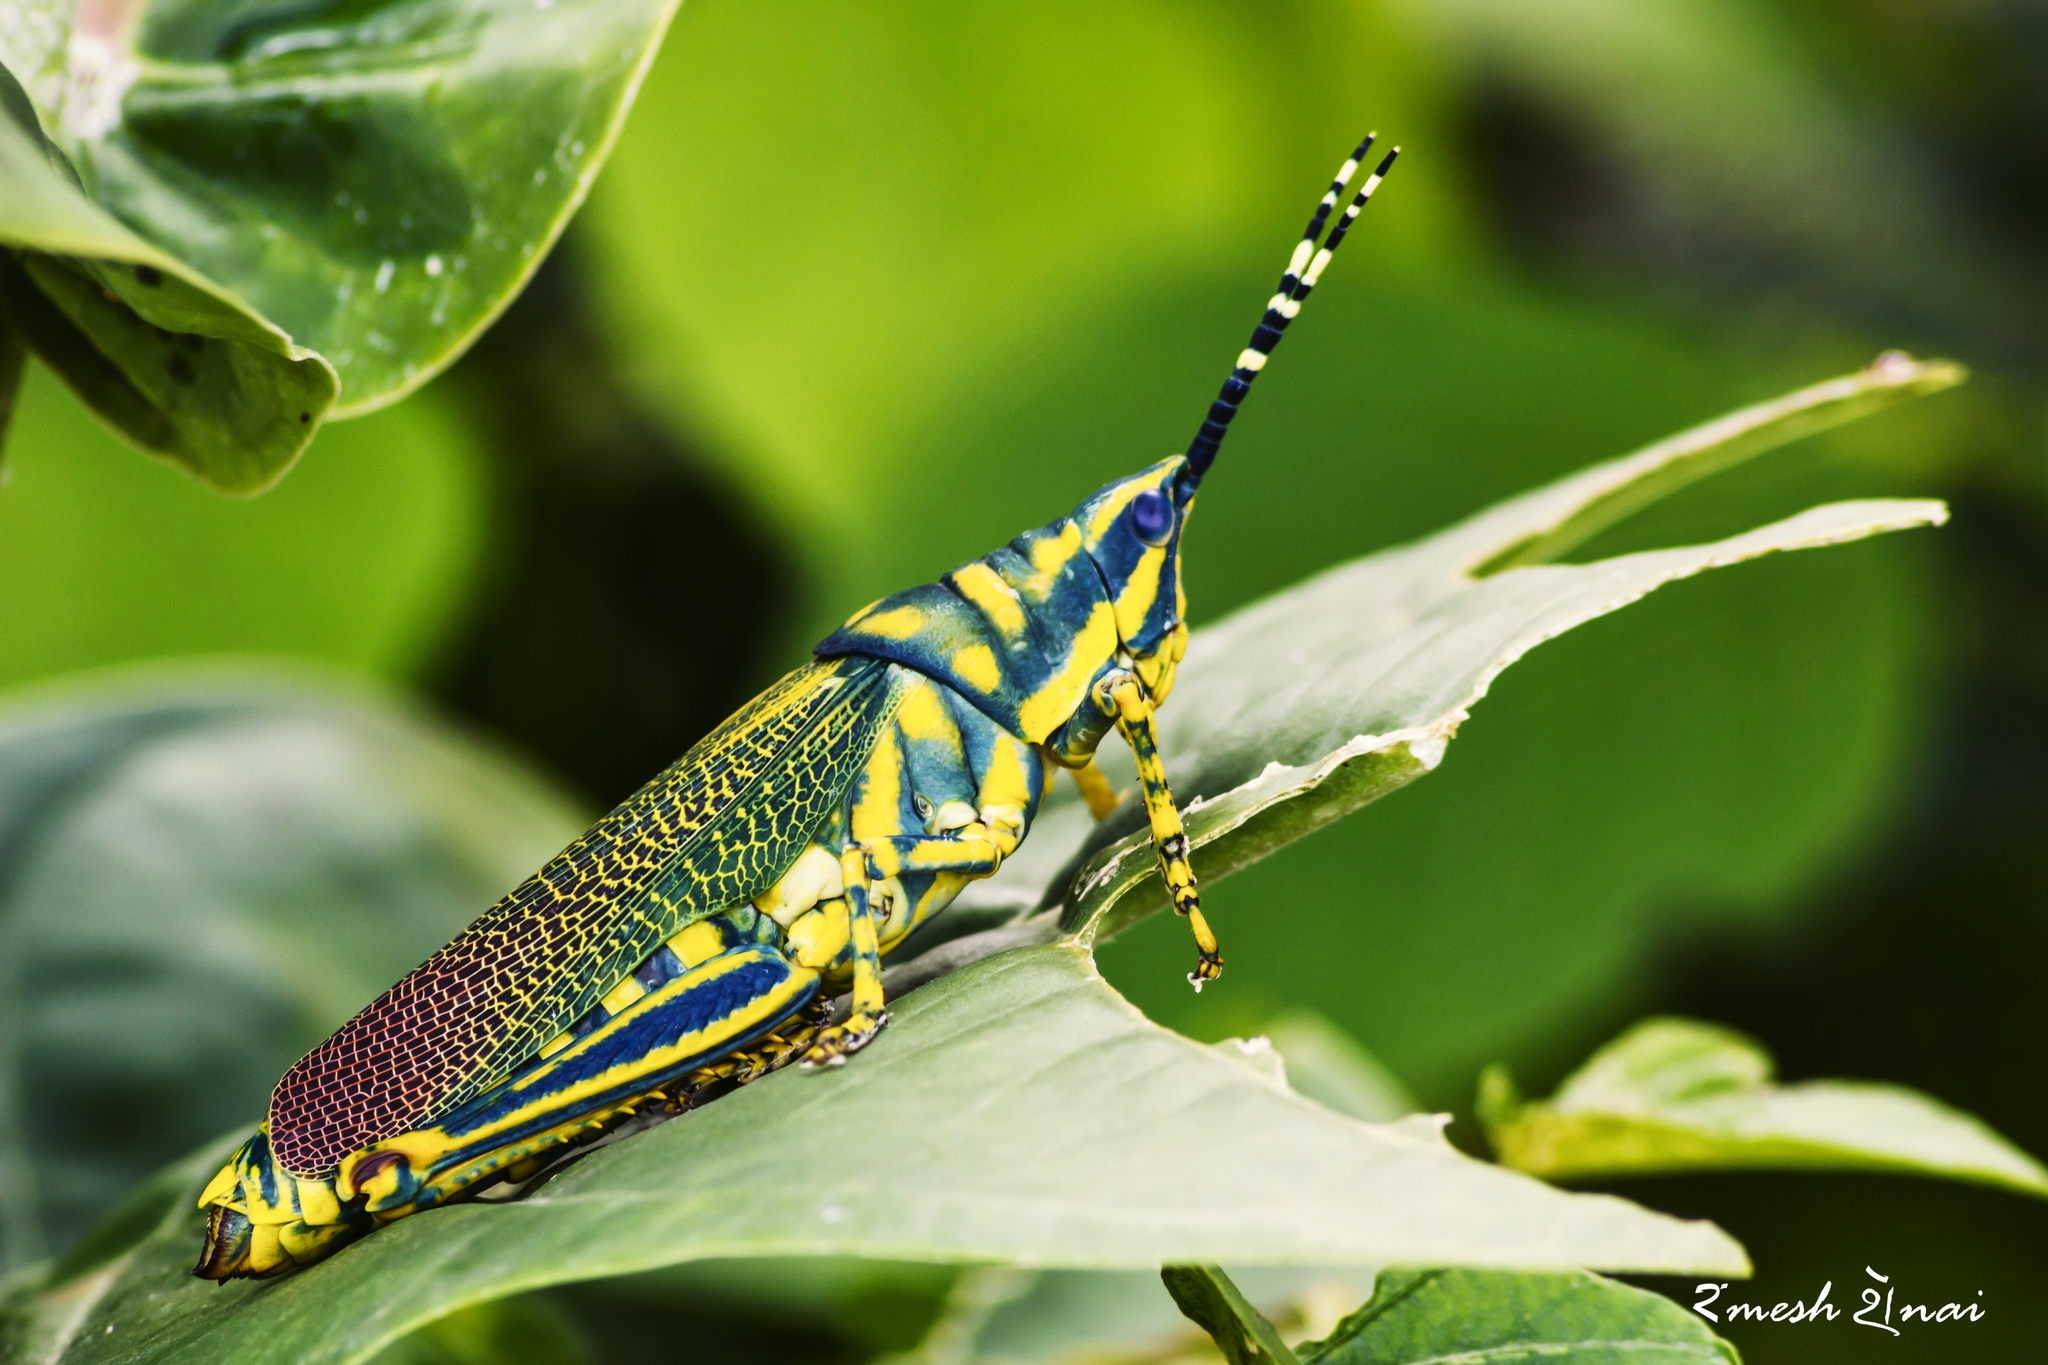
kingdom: Animalia
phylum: Arthropoda
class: Insecta
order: Orthoptera
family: Pyrgomorphidae
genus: Poekilocerus
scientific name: Poekilocerus pictus
